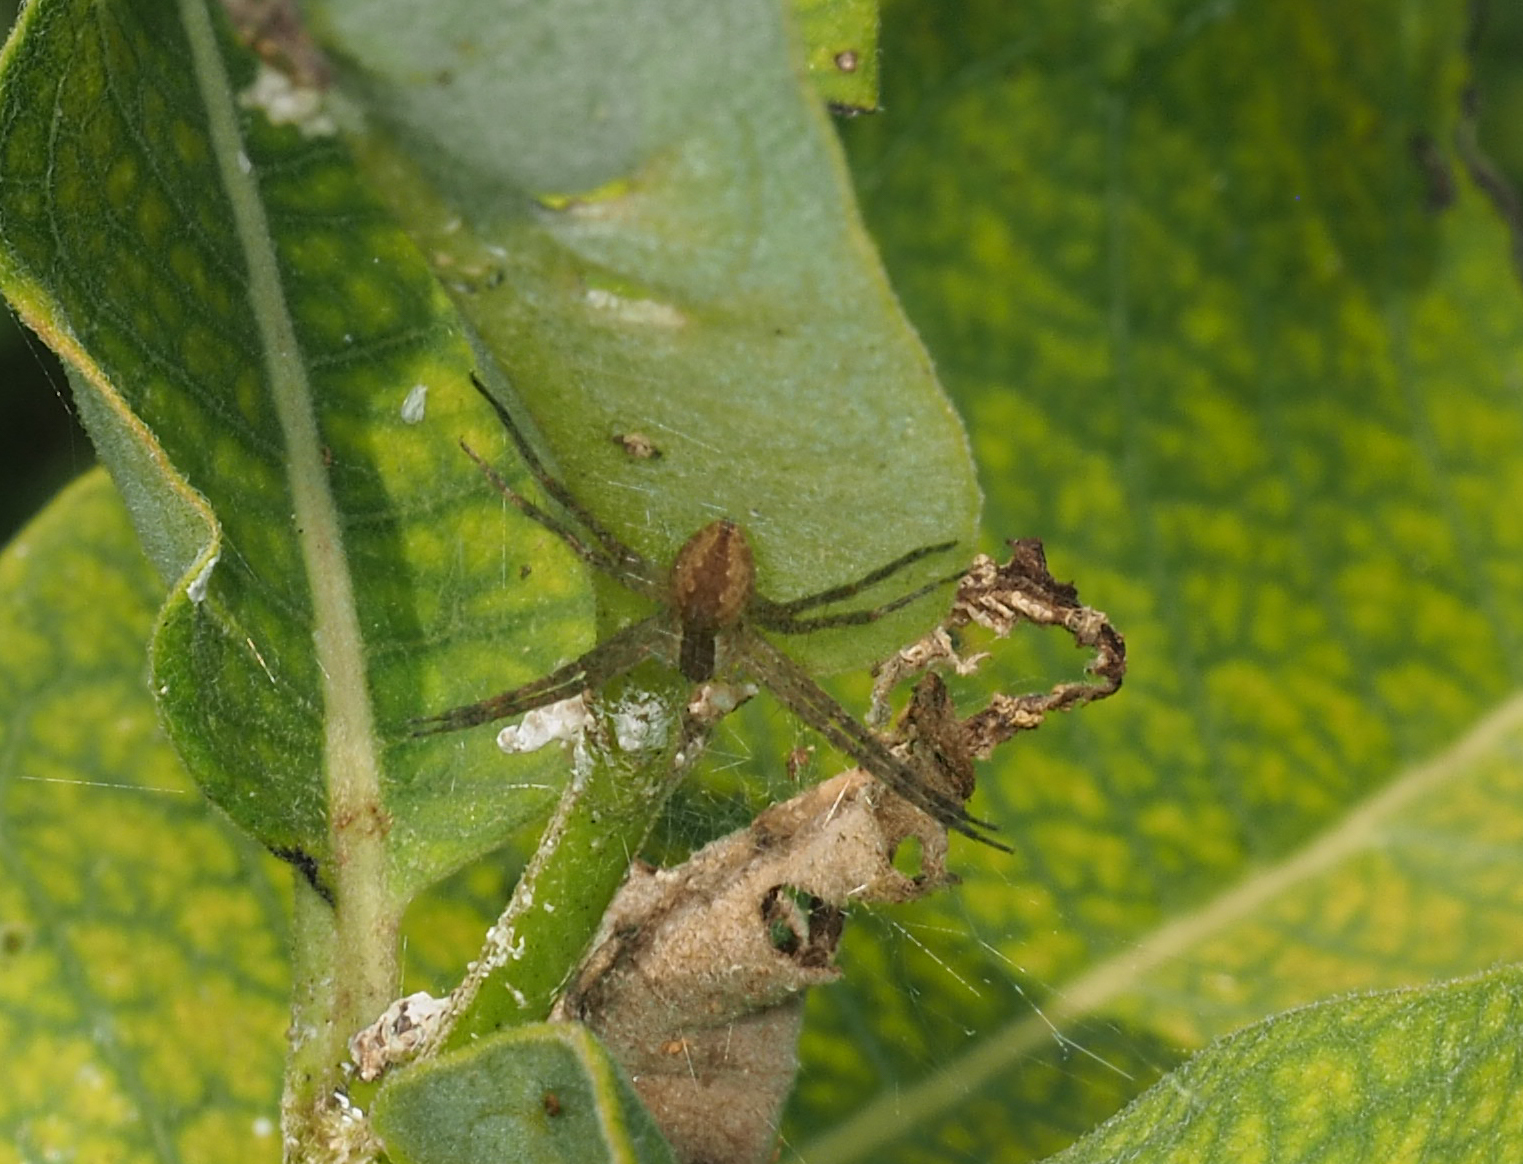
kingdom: Animalia
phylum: Arthropoda
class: Arachnida
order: Araneae
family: Pisauridae
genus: Pisaurina
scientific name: Pisaurina mira
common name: American nursery web spider
